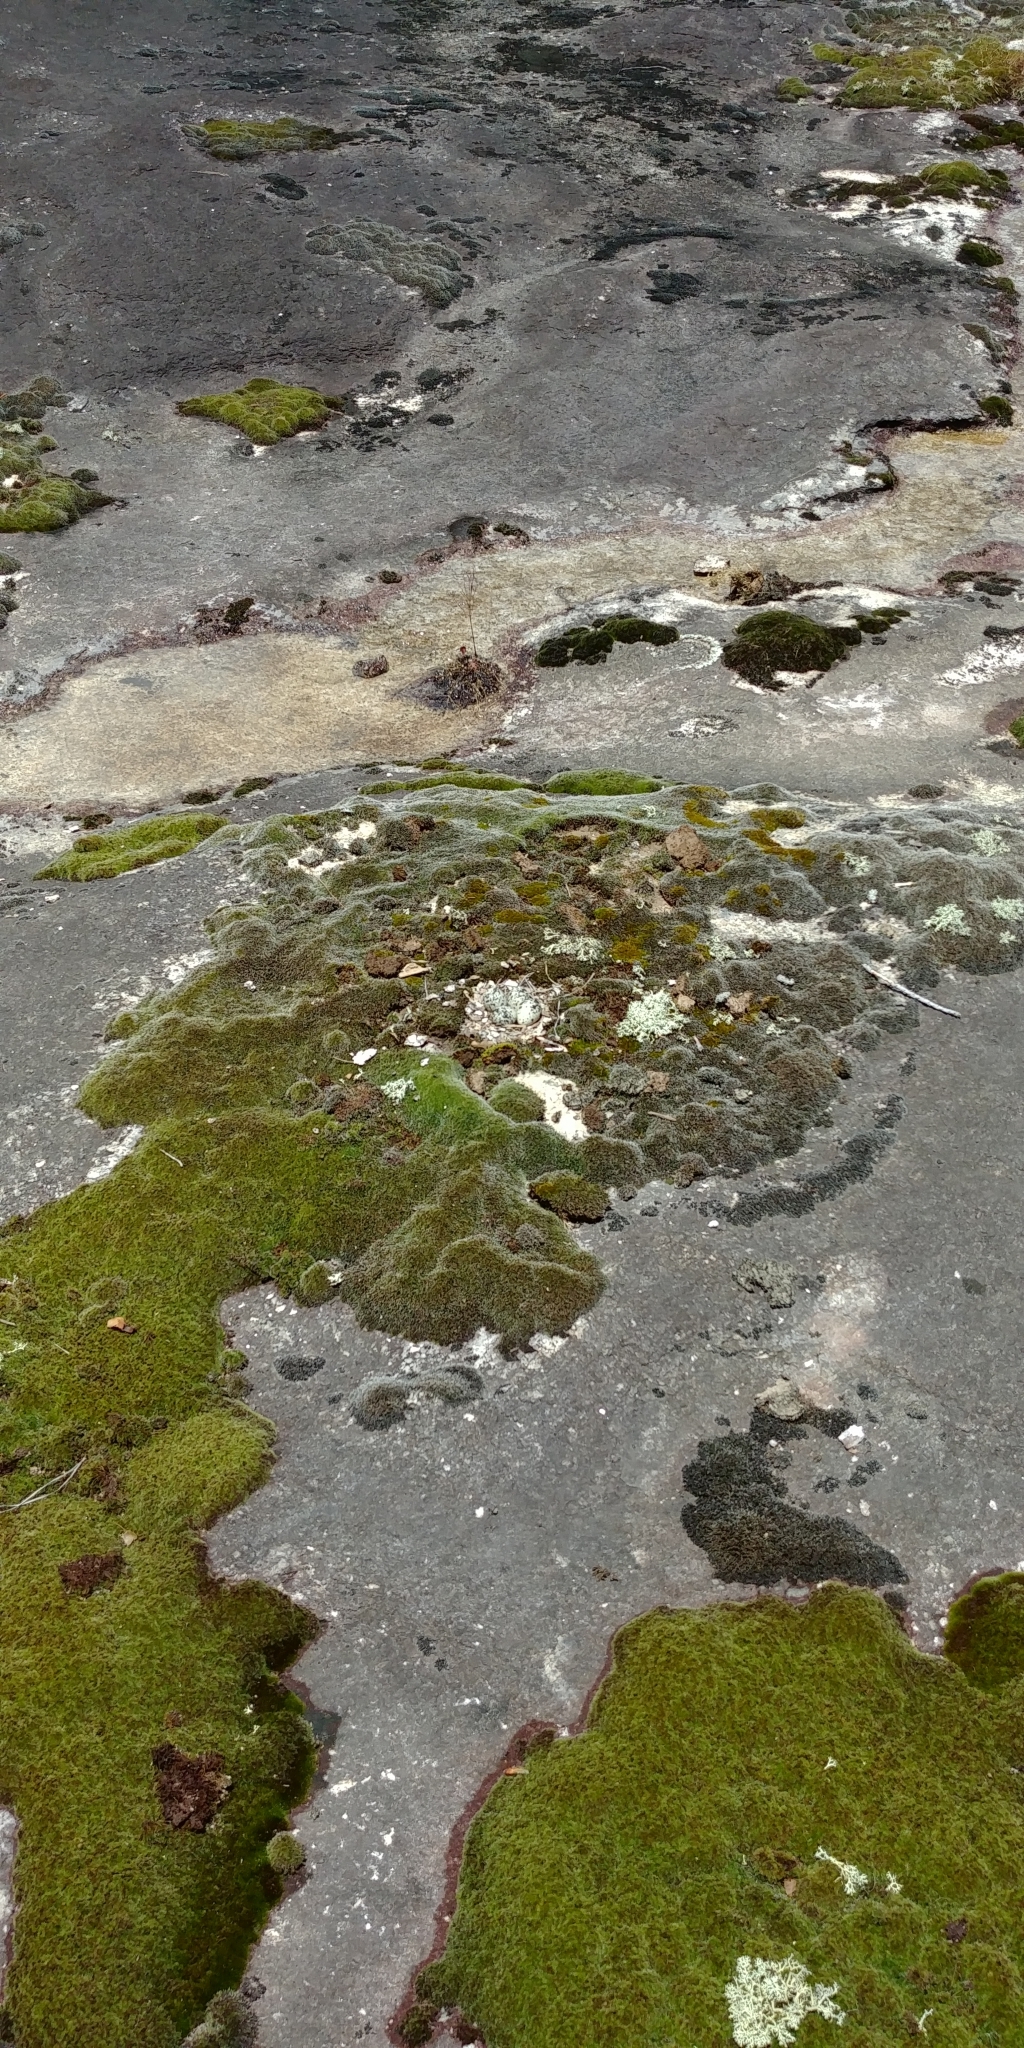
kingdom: Animalia
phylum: Chordata
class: Aves
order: Charadriiformes
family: Charadriidae
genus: Charadrius
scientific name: Charadrius vociferus
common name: Killdeer
